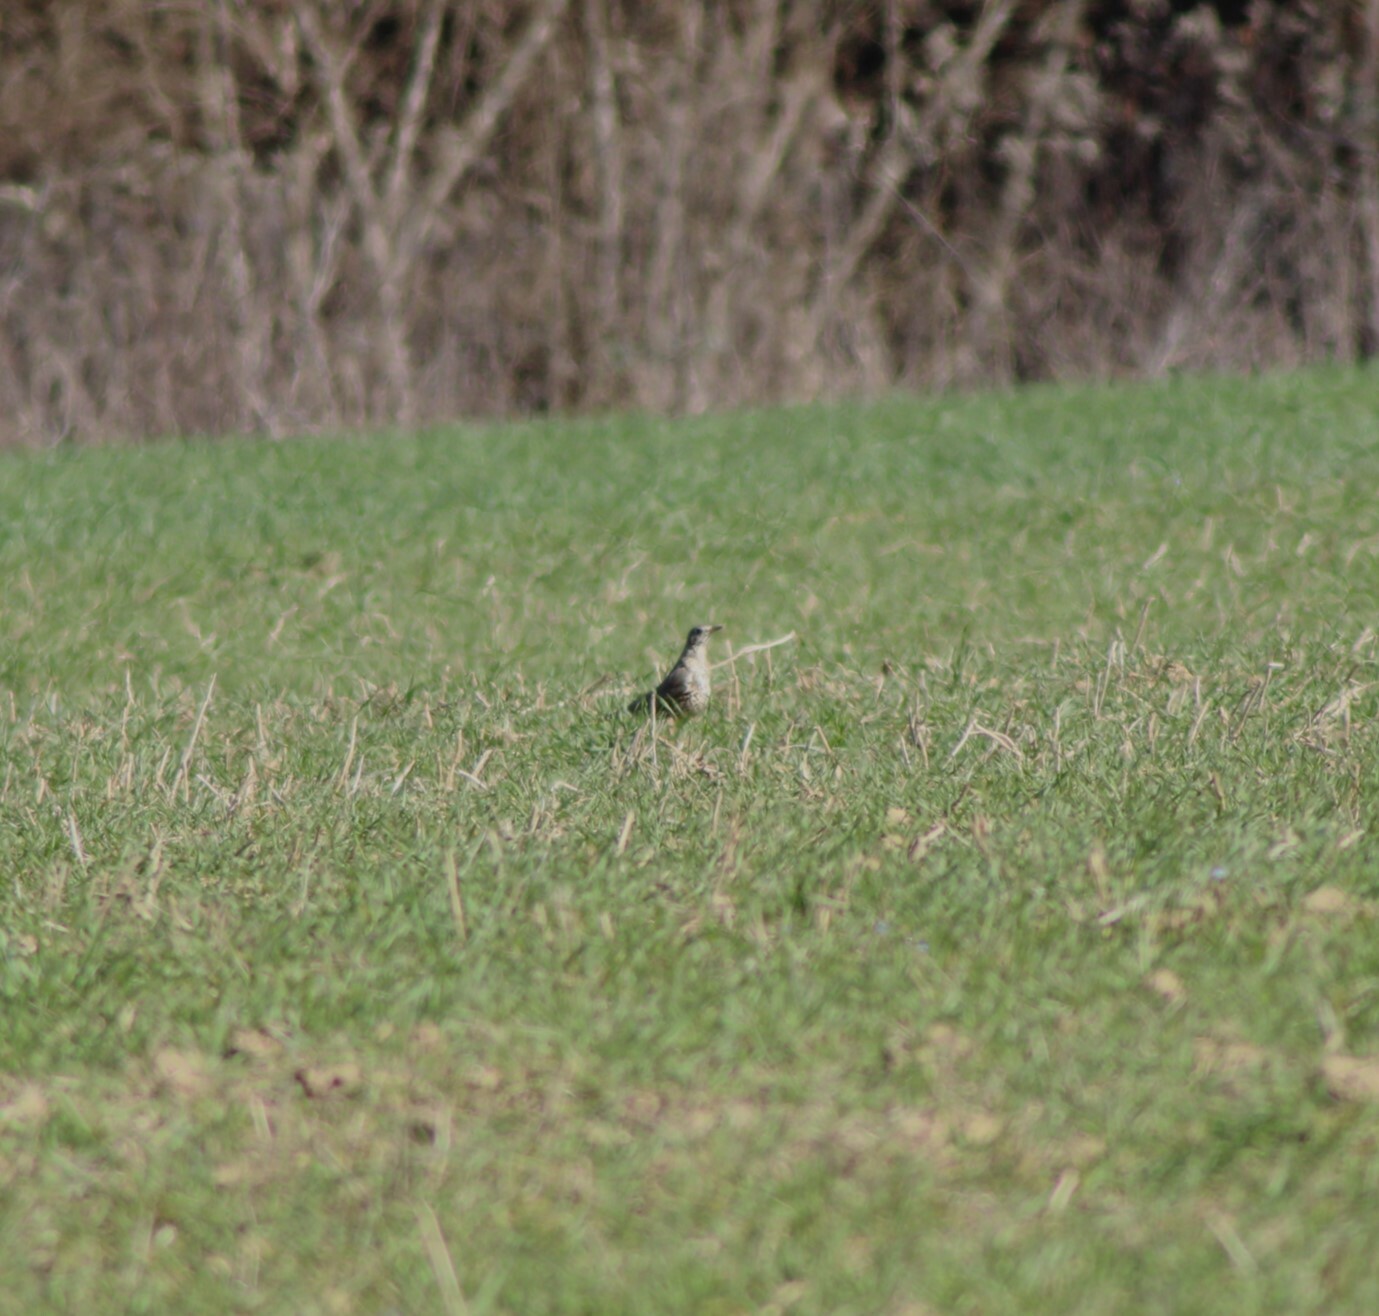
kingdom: Animalia
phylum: Chordata
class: Aves
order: Passeriformes
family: Turdidae
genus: Turdus
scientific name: Turdus viscivorus
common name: Mistle thrush
